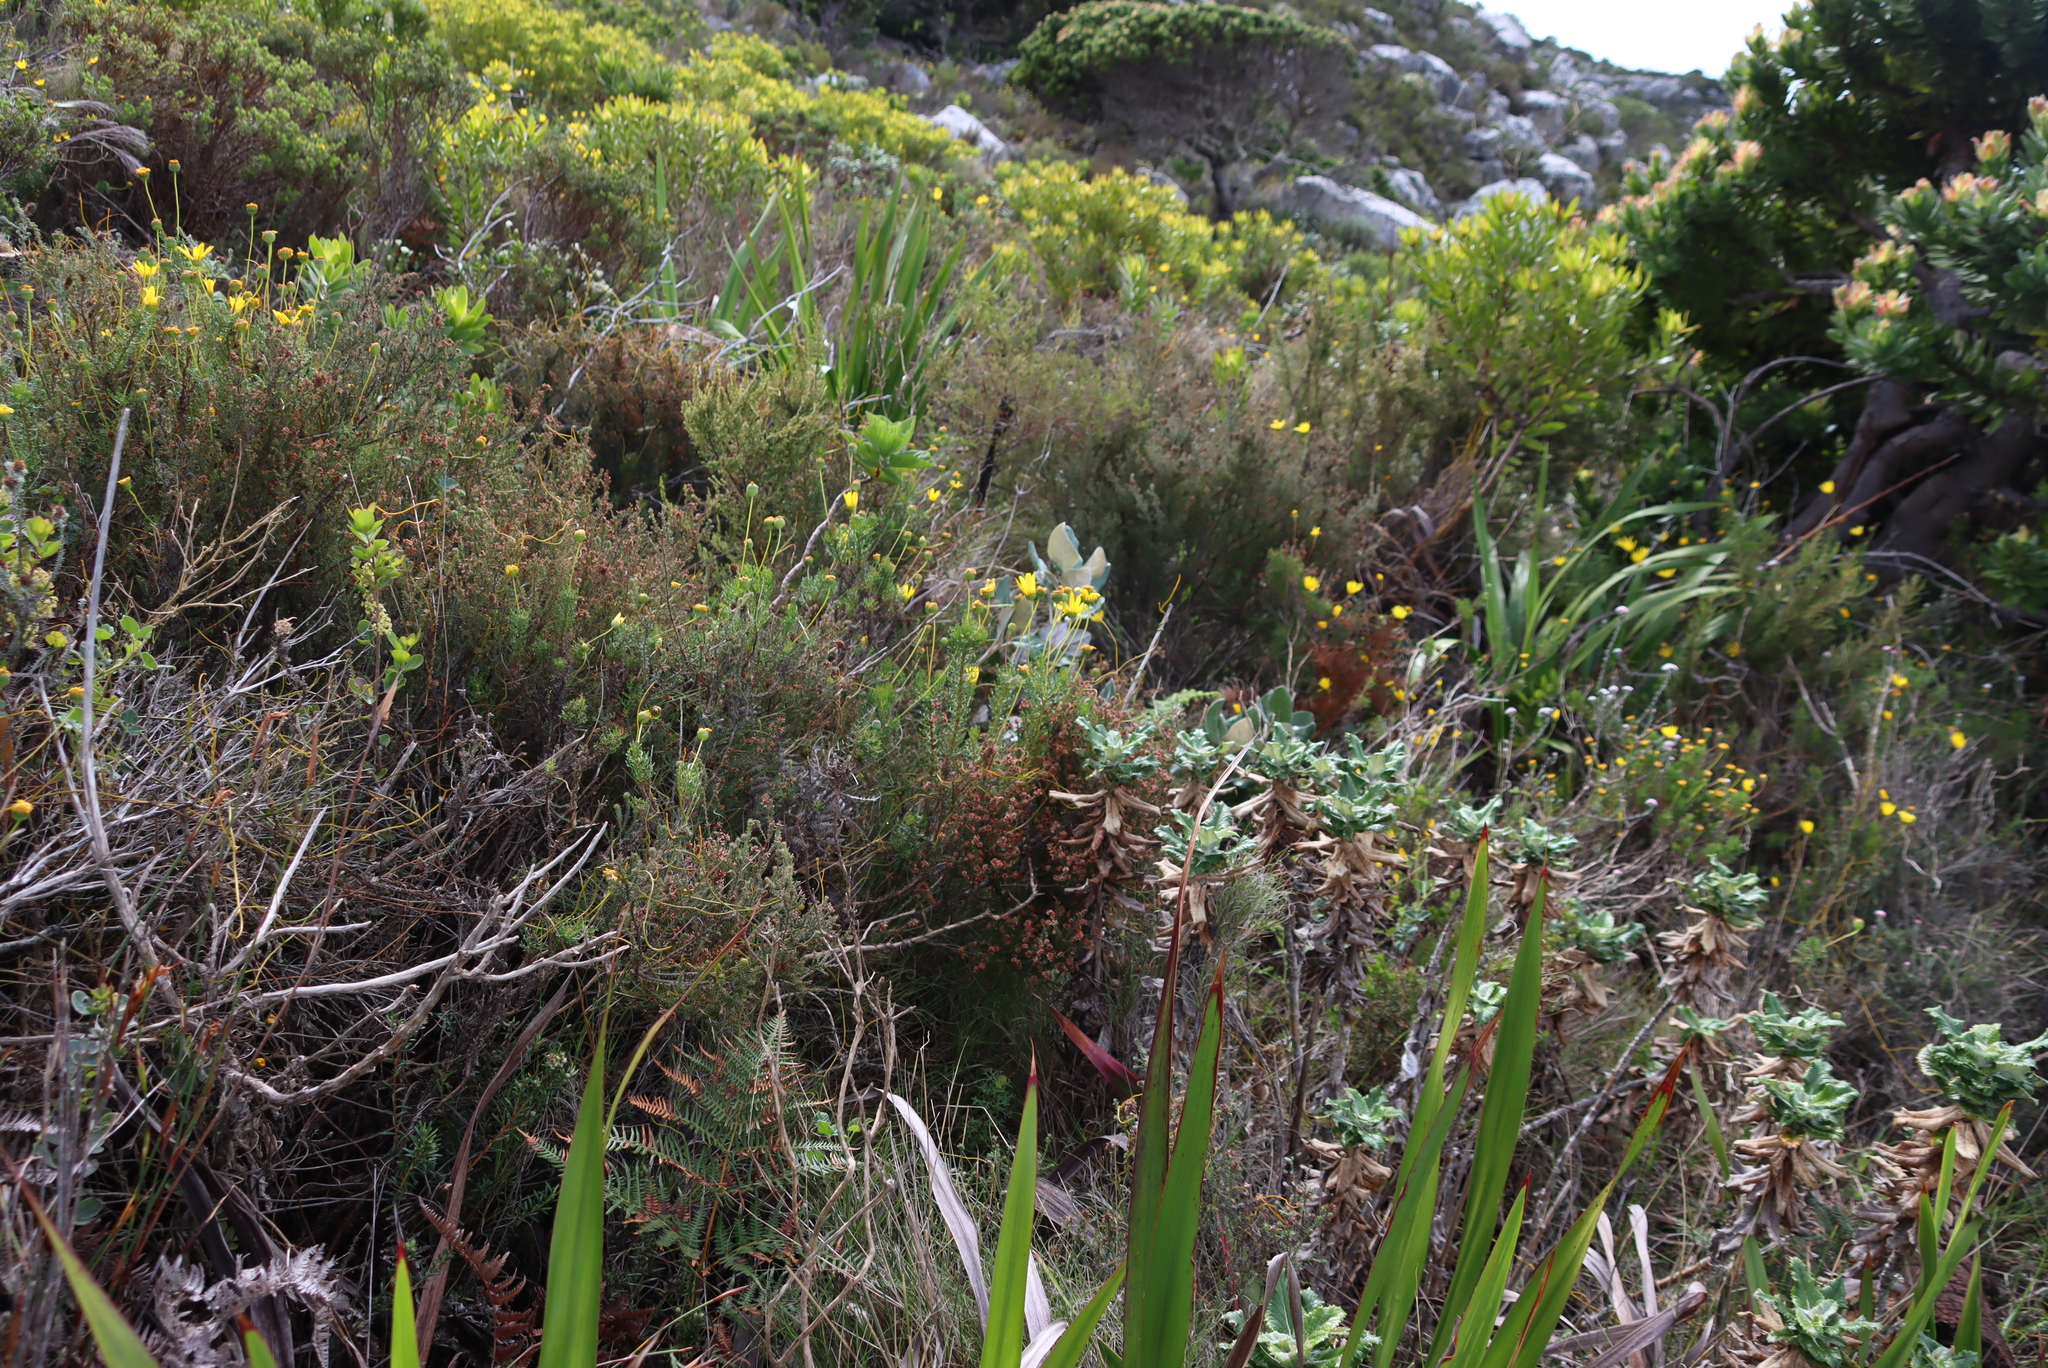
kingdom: Plantae
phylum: Tracheophyta
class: Magnoliopsida
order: Asterales
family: Asteraceae
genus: Euryops
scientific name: Euryops abrotanifolius
